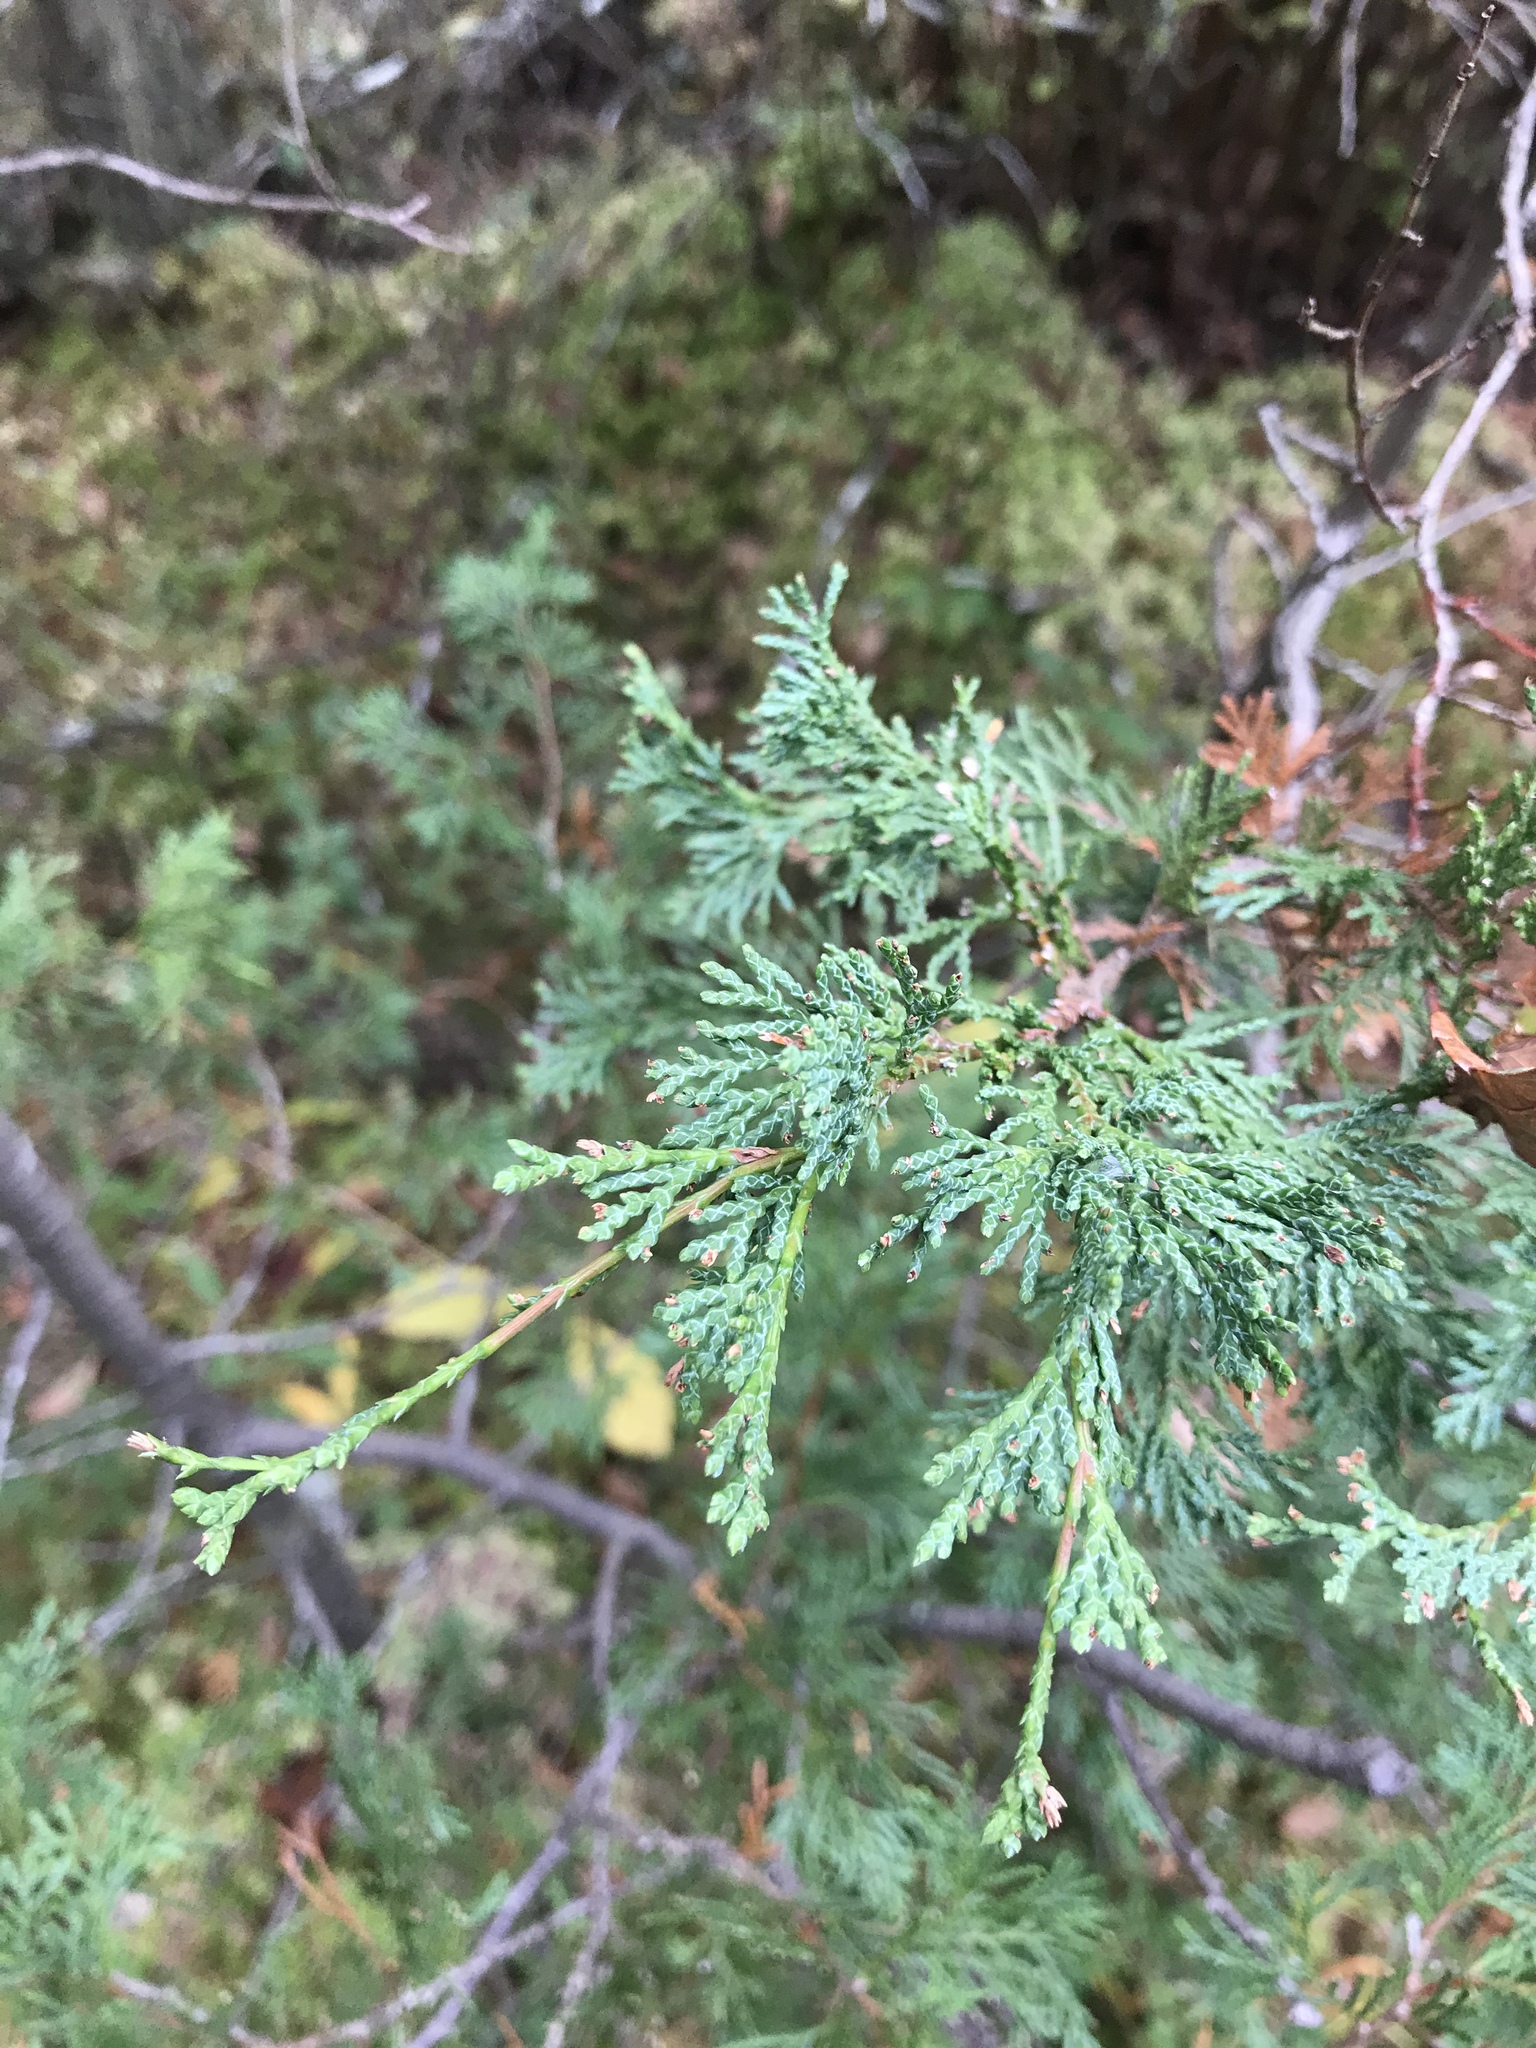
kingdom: Plantae
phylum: Tracheophyta
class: Pinopsida
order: Pinales
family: Cupressaceae
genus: Chamaecyparis
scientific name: Chamaecyparis thyoides
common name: Atlantic white cedar
